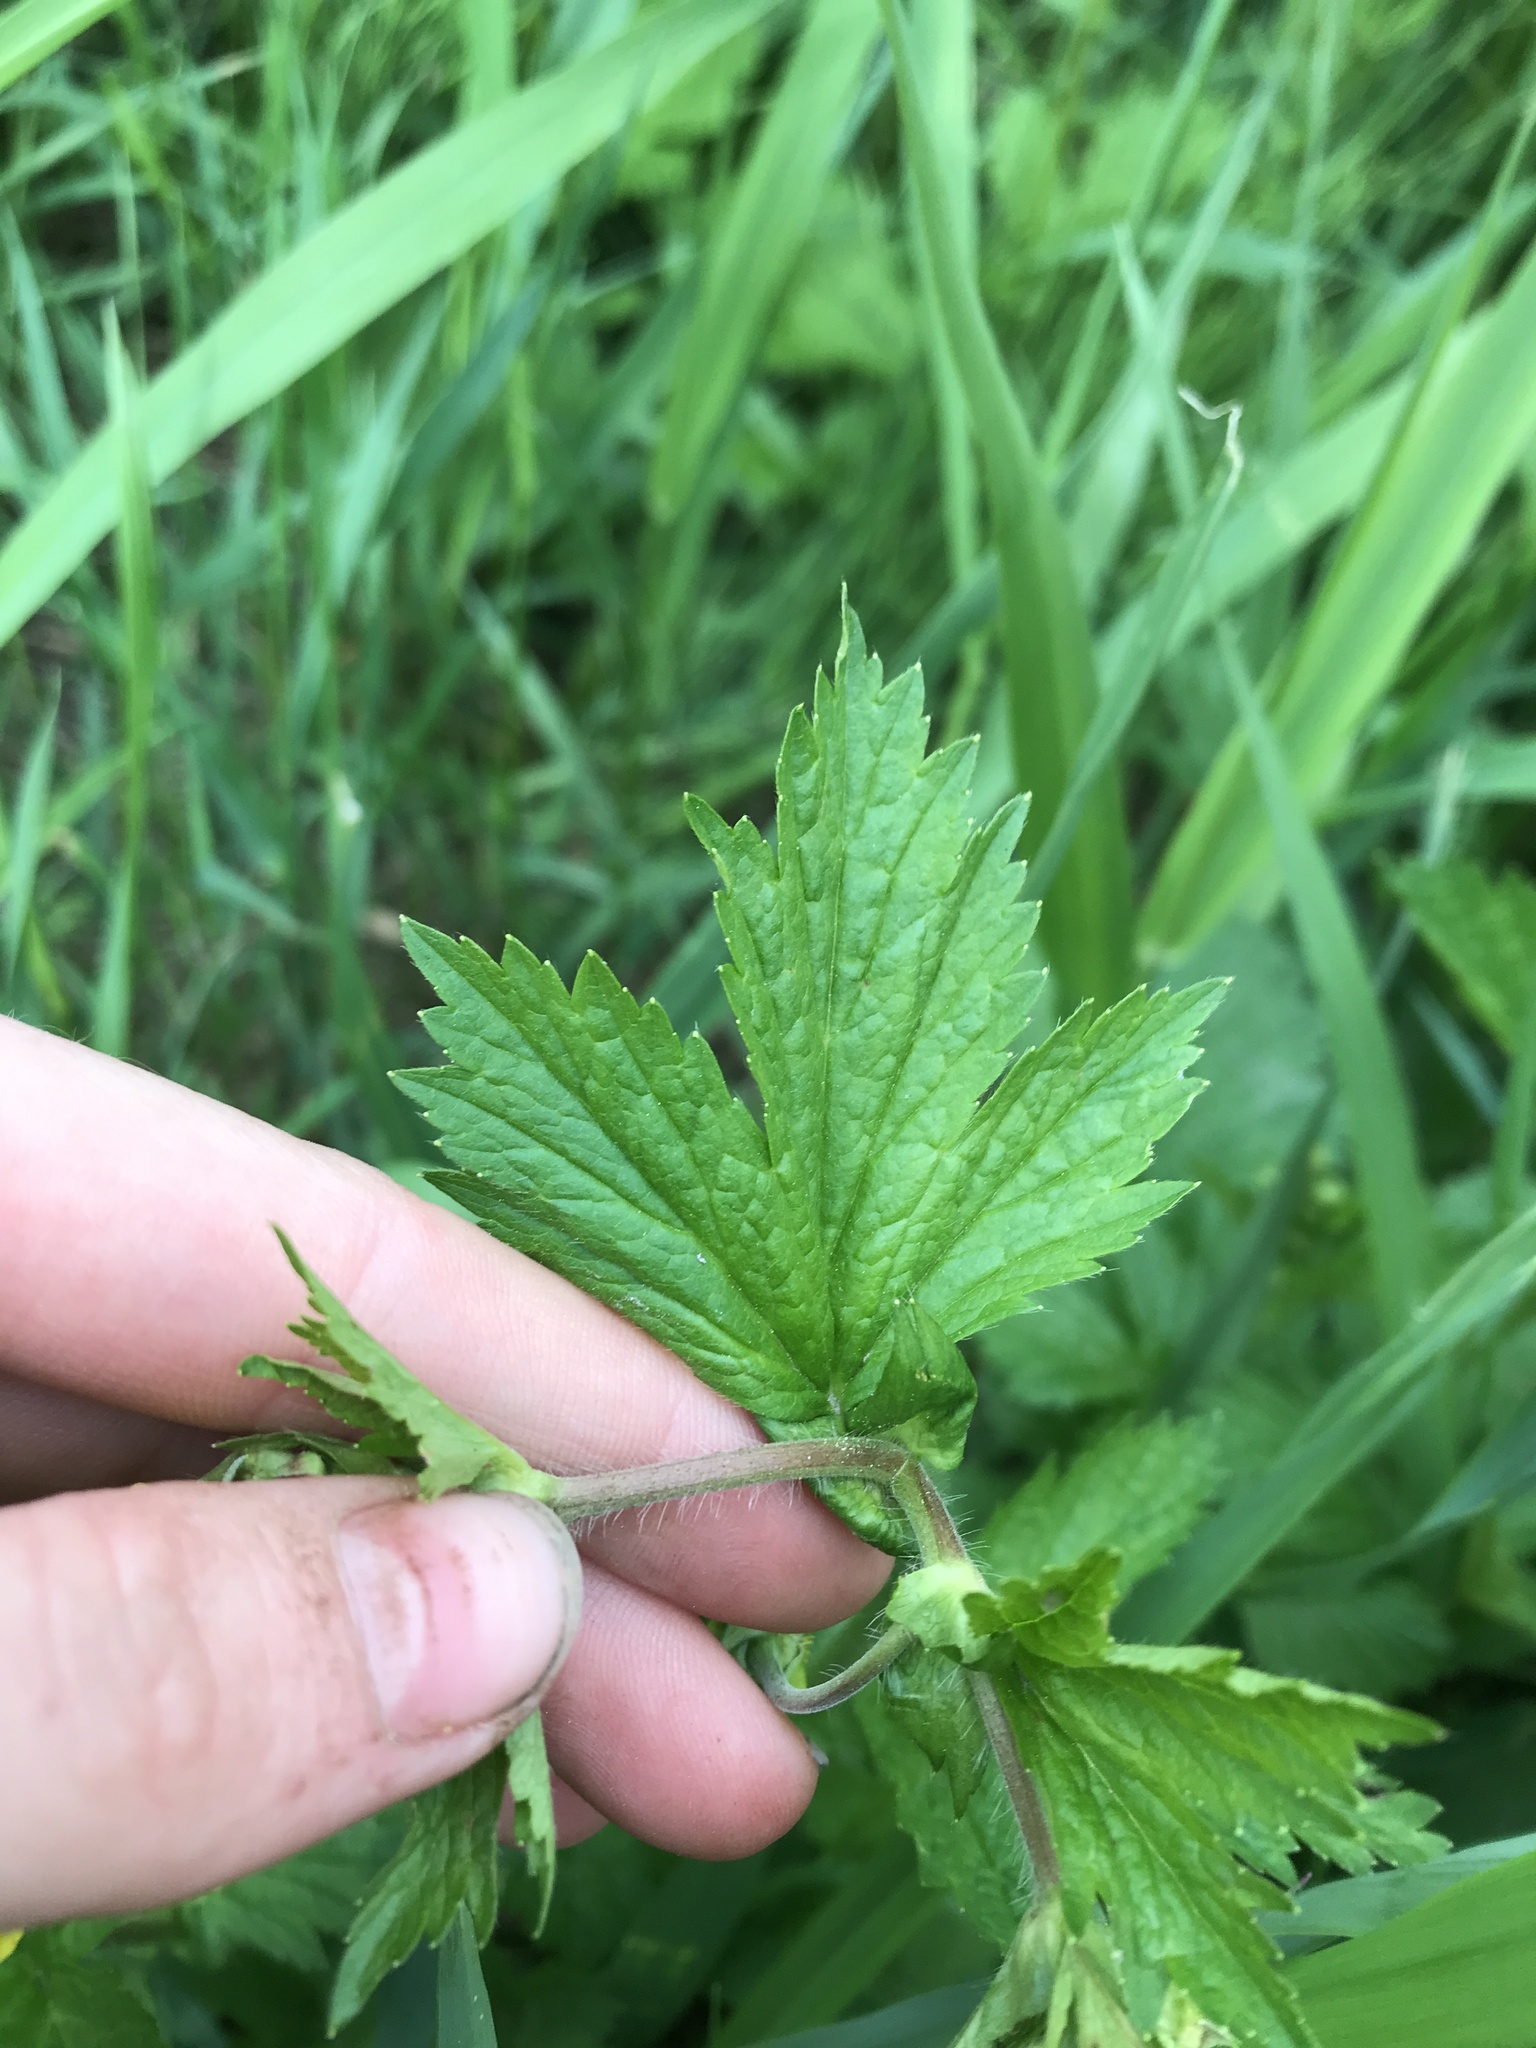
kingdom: Plantae
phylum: Tracheophyta
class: Magnoliopsida
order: Rosales
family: Rosaceae
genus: Geum
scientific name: Geum macrophyllum
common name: Large-leaved avens
